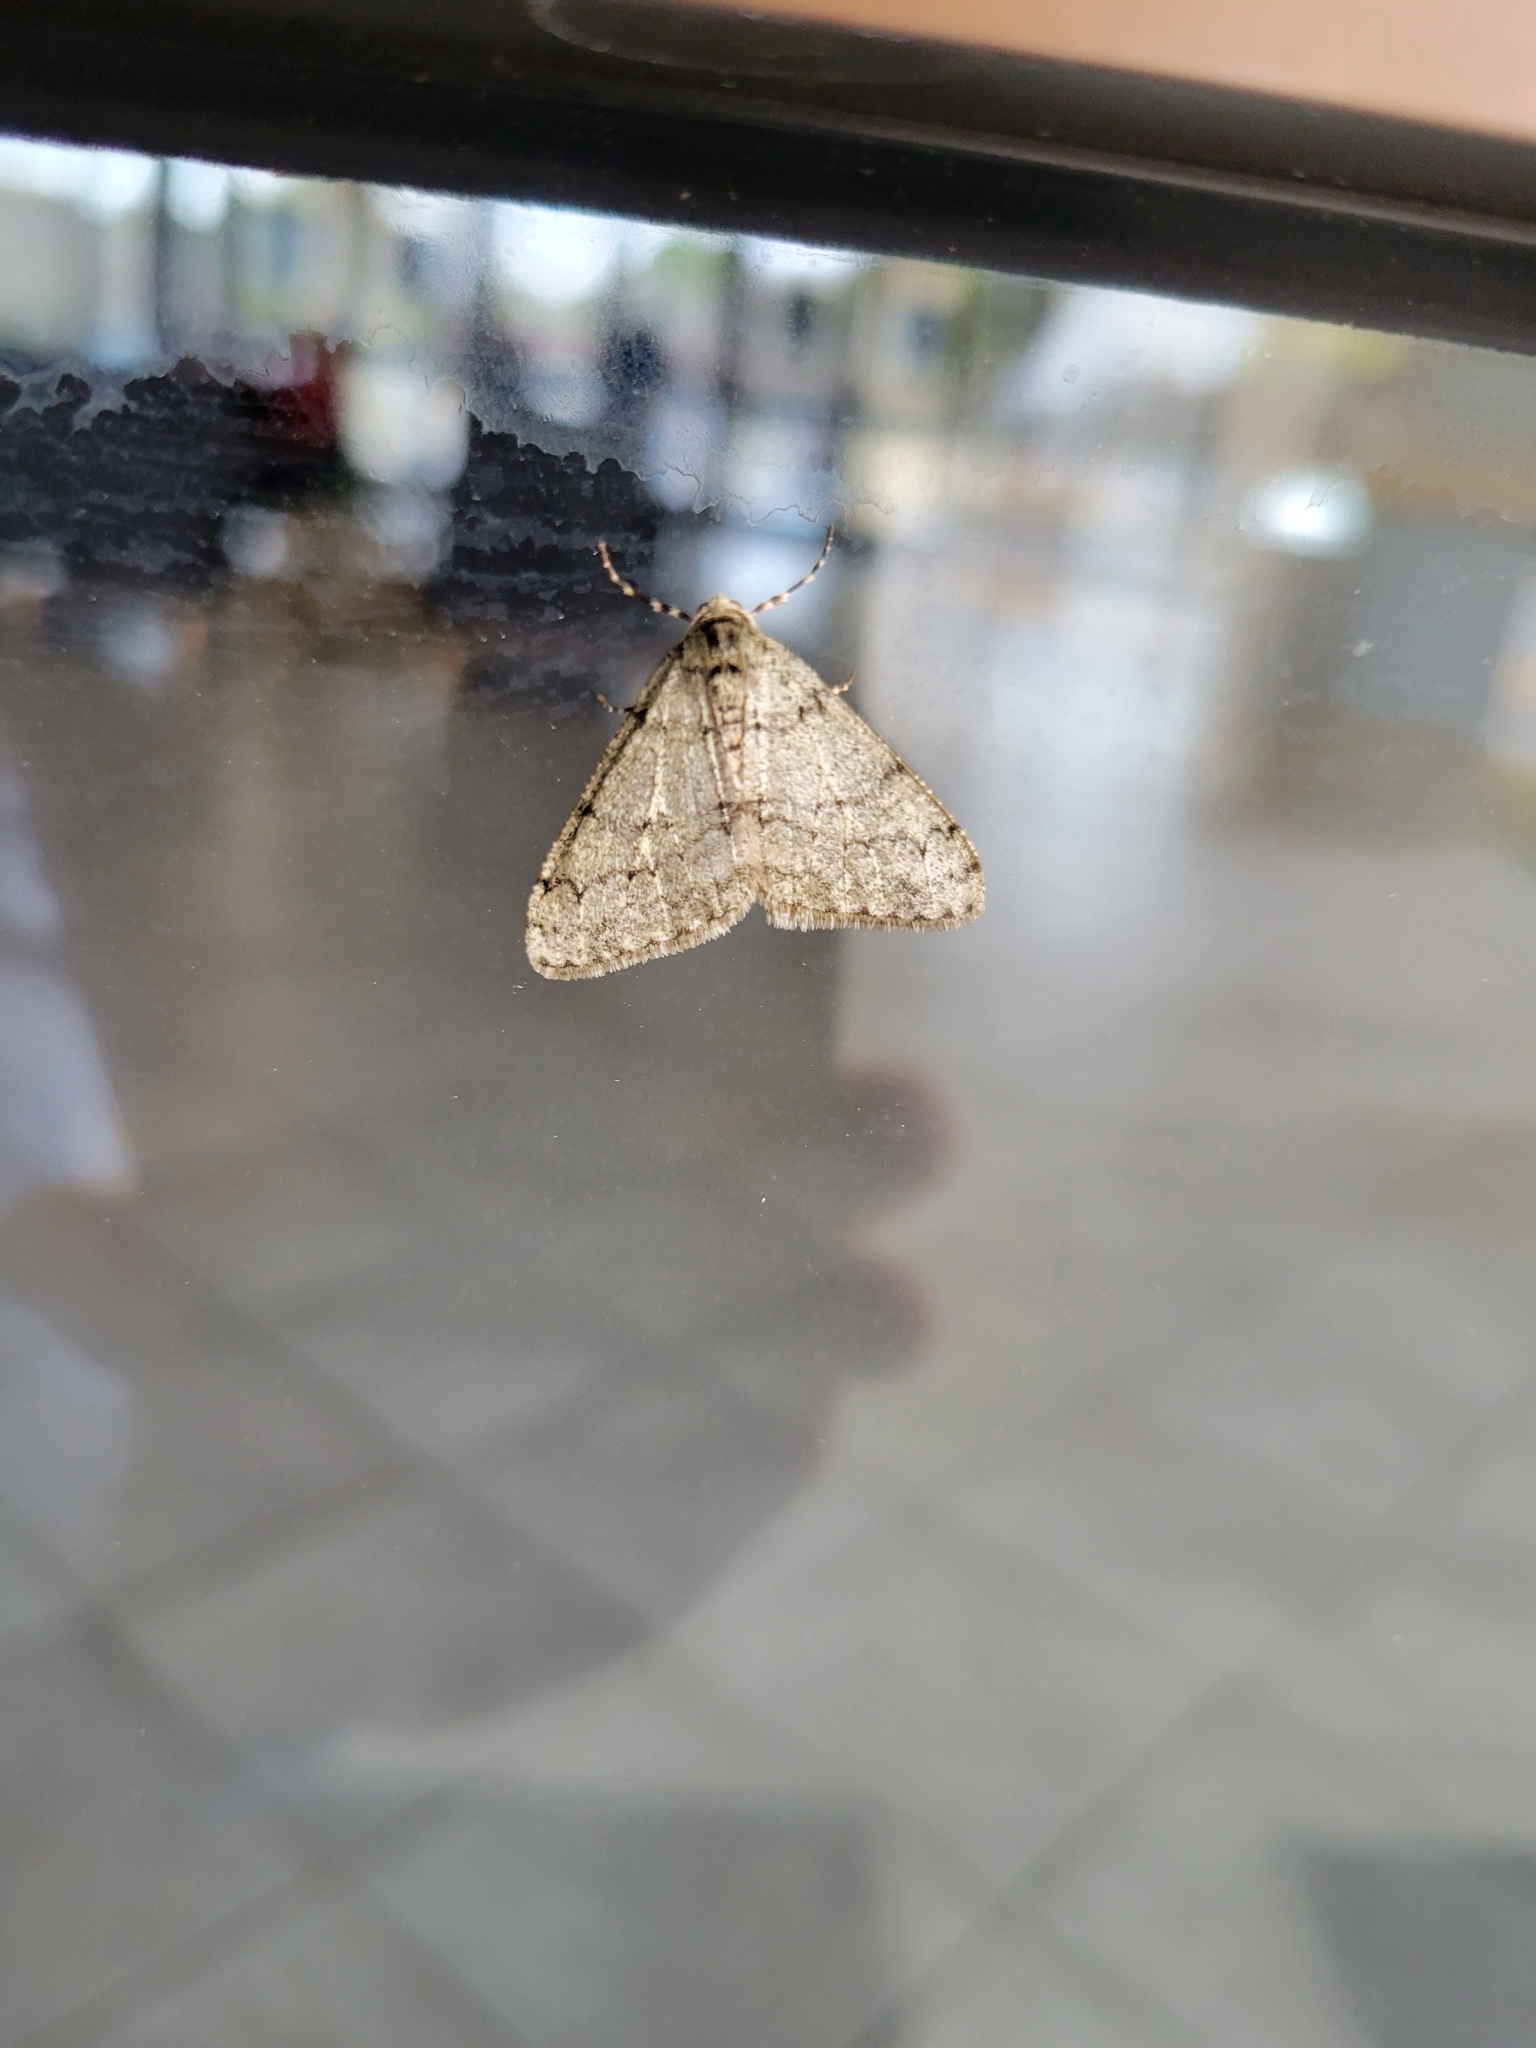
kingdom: Animalia
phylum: Arthropoda
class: Insecta
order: Lepidoptera
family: Geometridae
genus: Phigalia
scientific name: Phigalia strigataria
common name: Small phigalia
